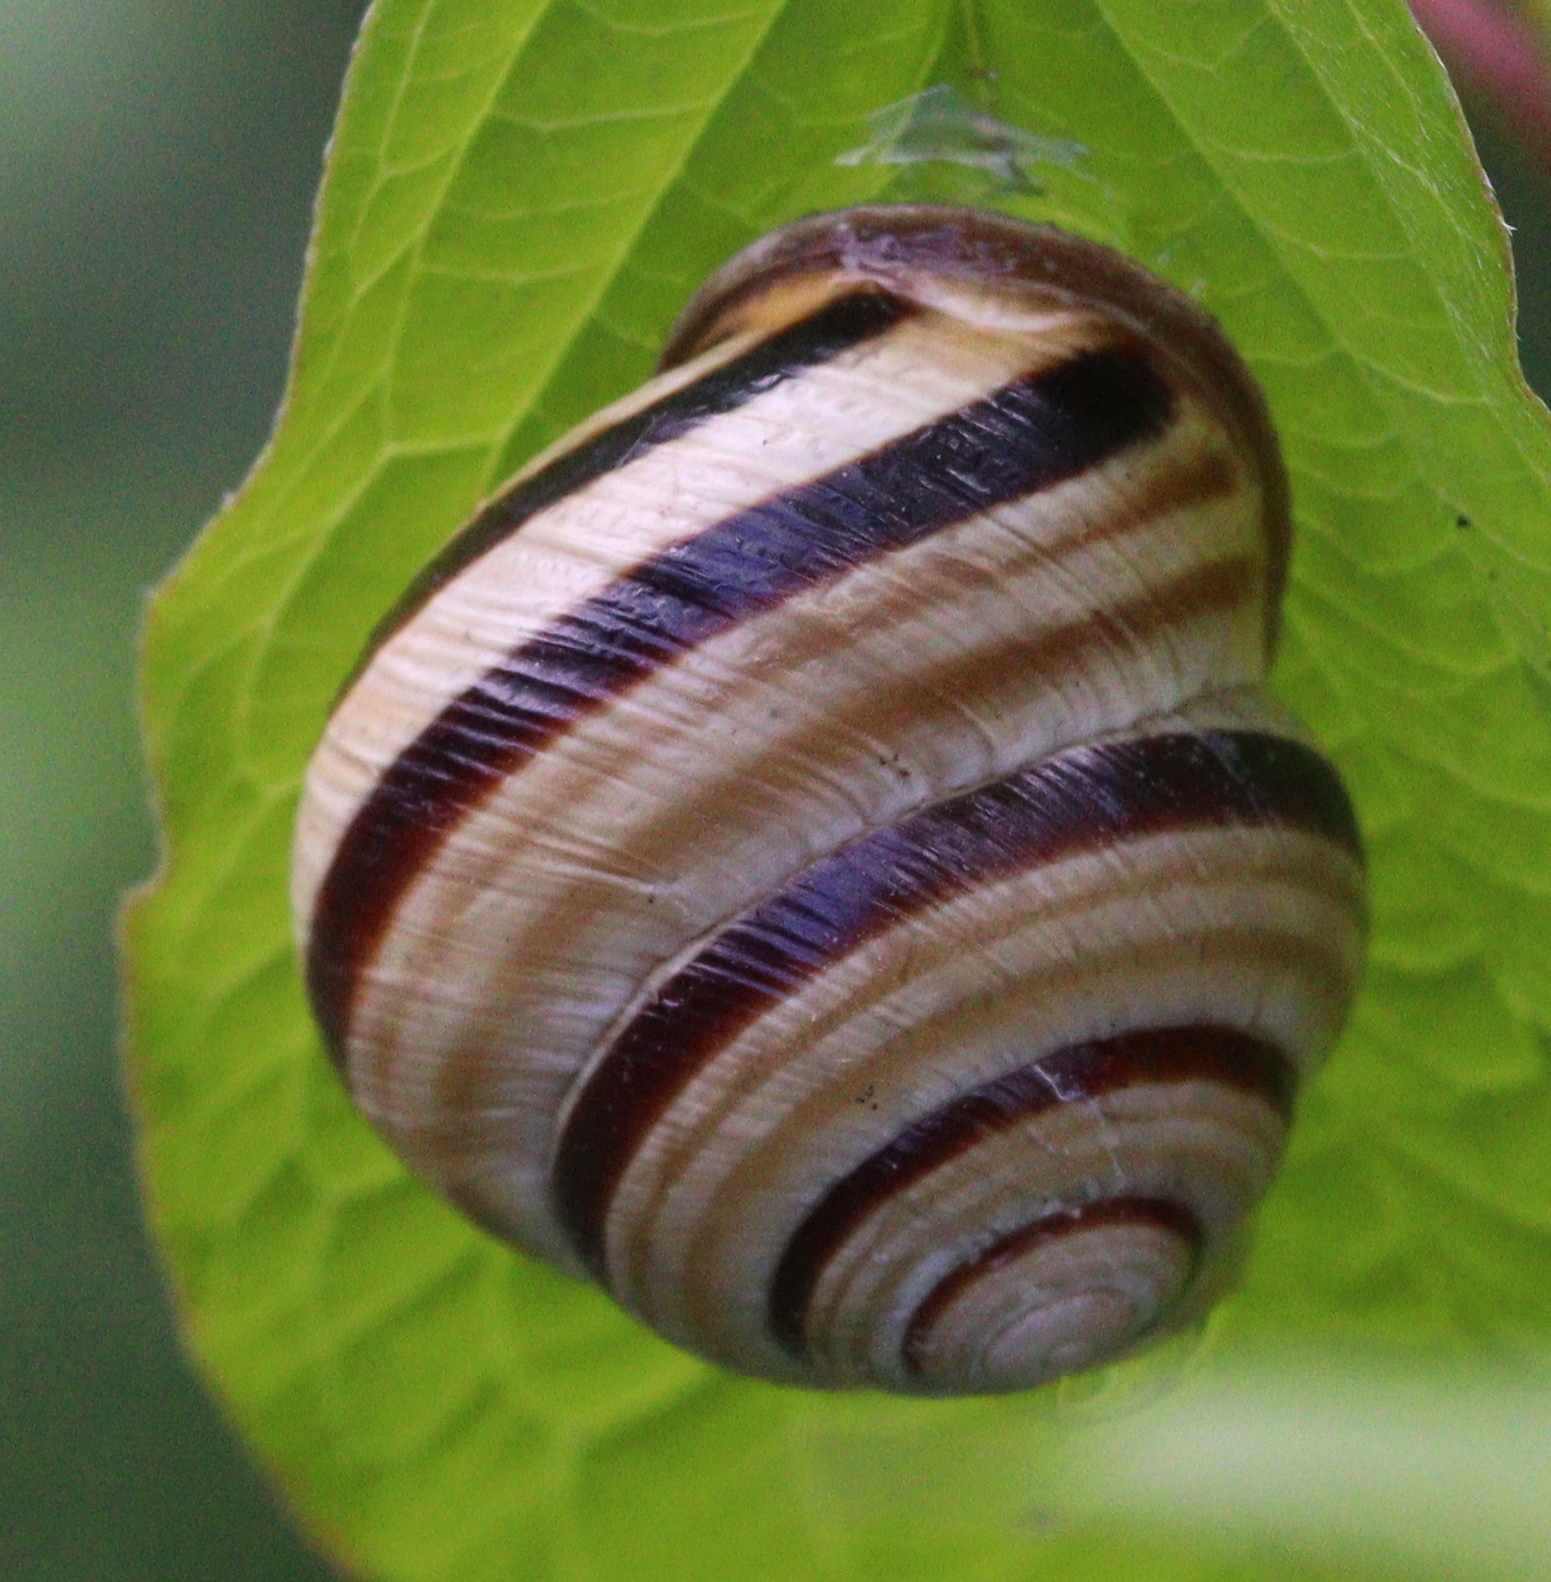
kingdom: Animalia
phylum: Mollusca
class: Gastropoda
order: Stylommatophora
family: Helicidae
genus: Caucasotachea
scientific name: Caucasotachea vindobonensis
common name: European helicid land snail
